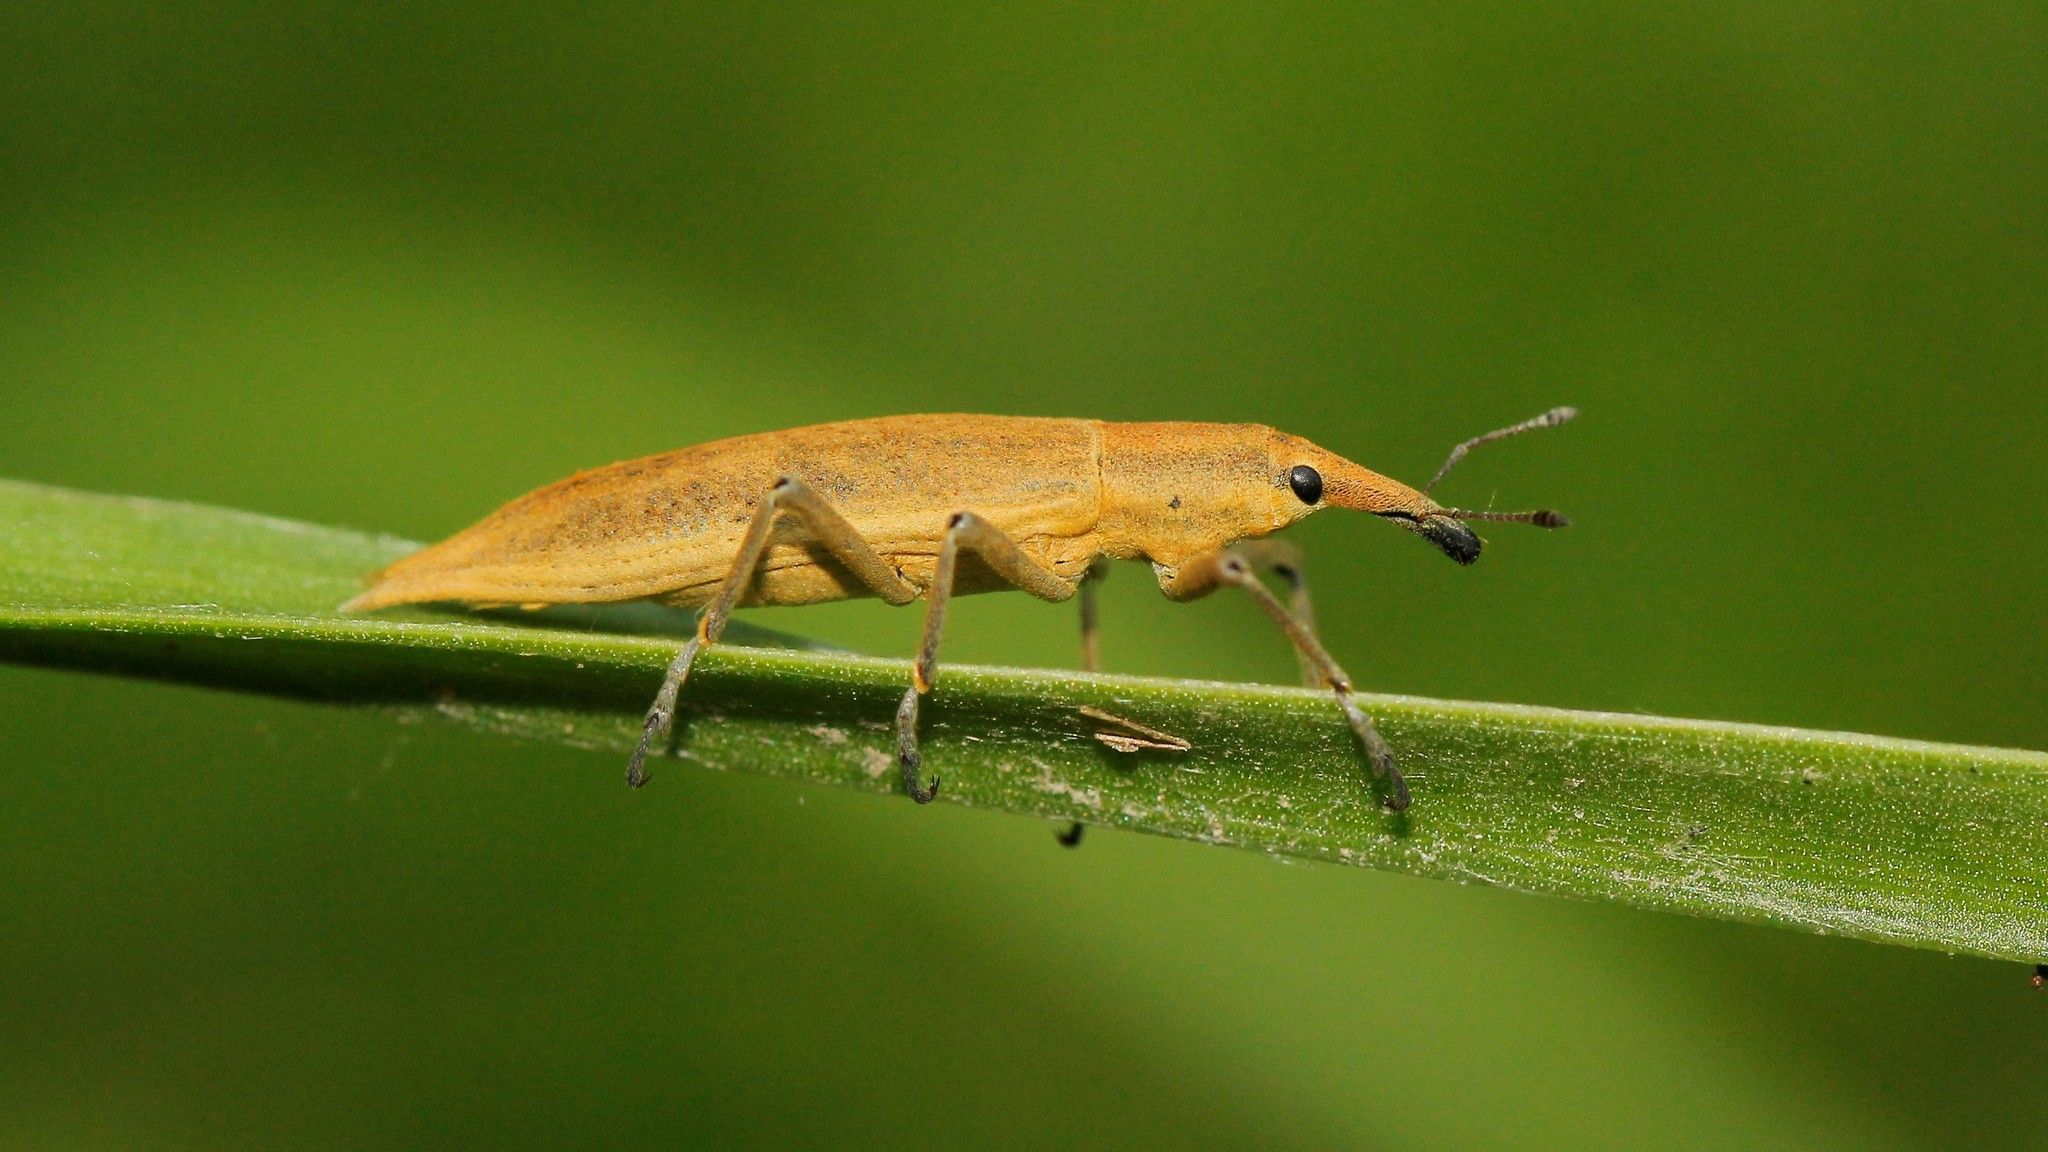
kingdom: Animalia
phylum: Arthropoda
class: Insecta
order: Coleoptera
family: Curculionidae
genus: Lixus
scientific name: Lixus paraplecticus
